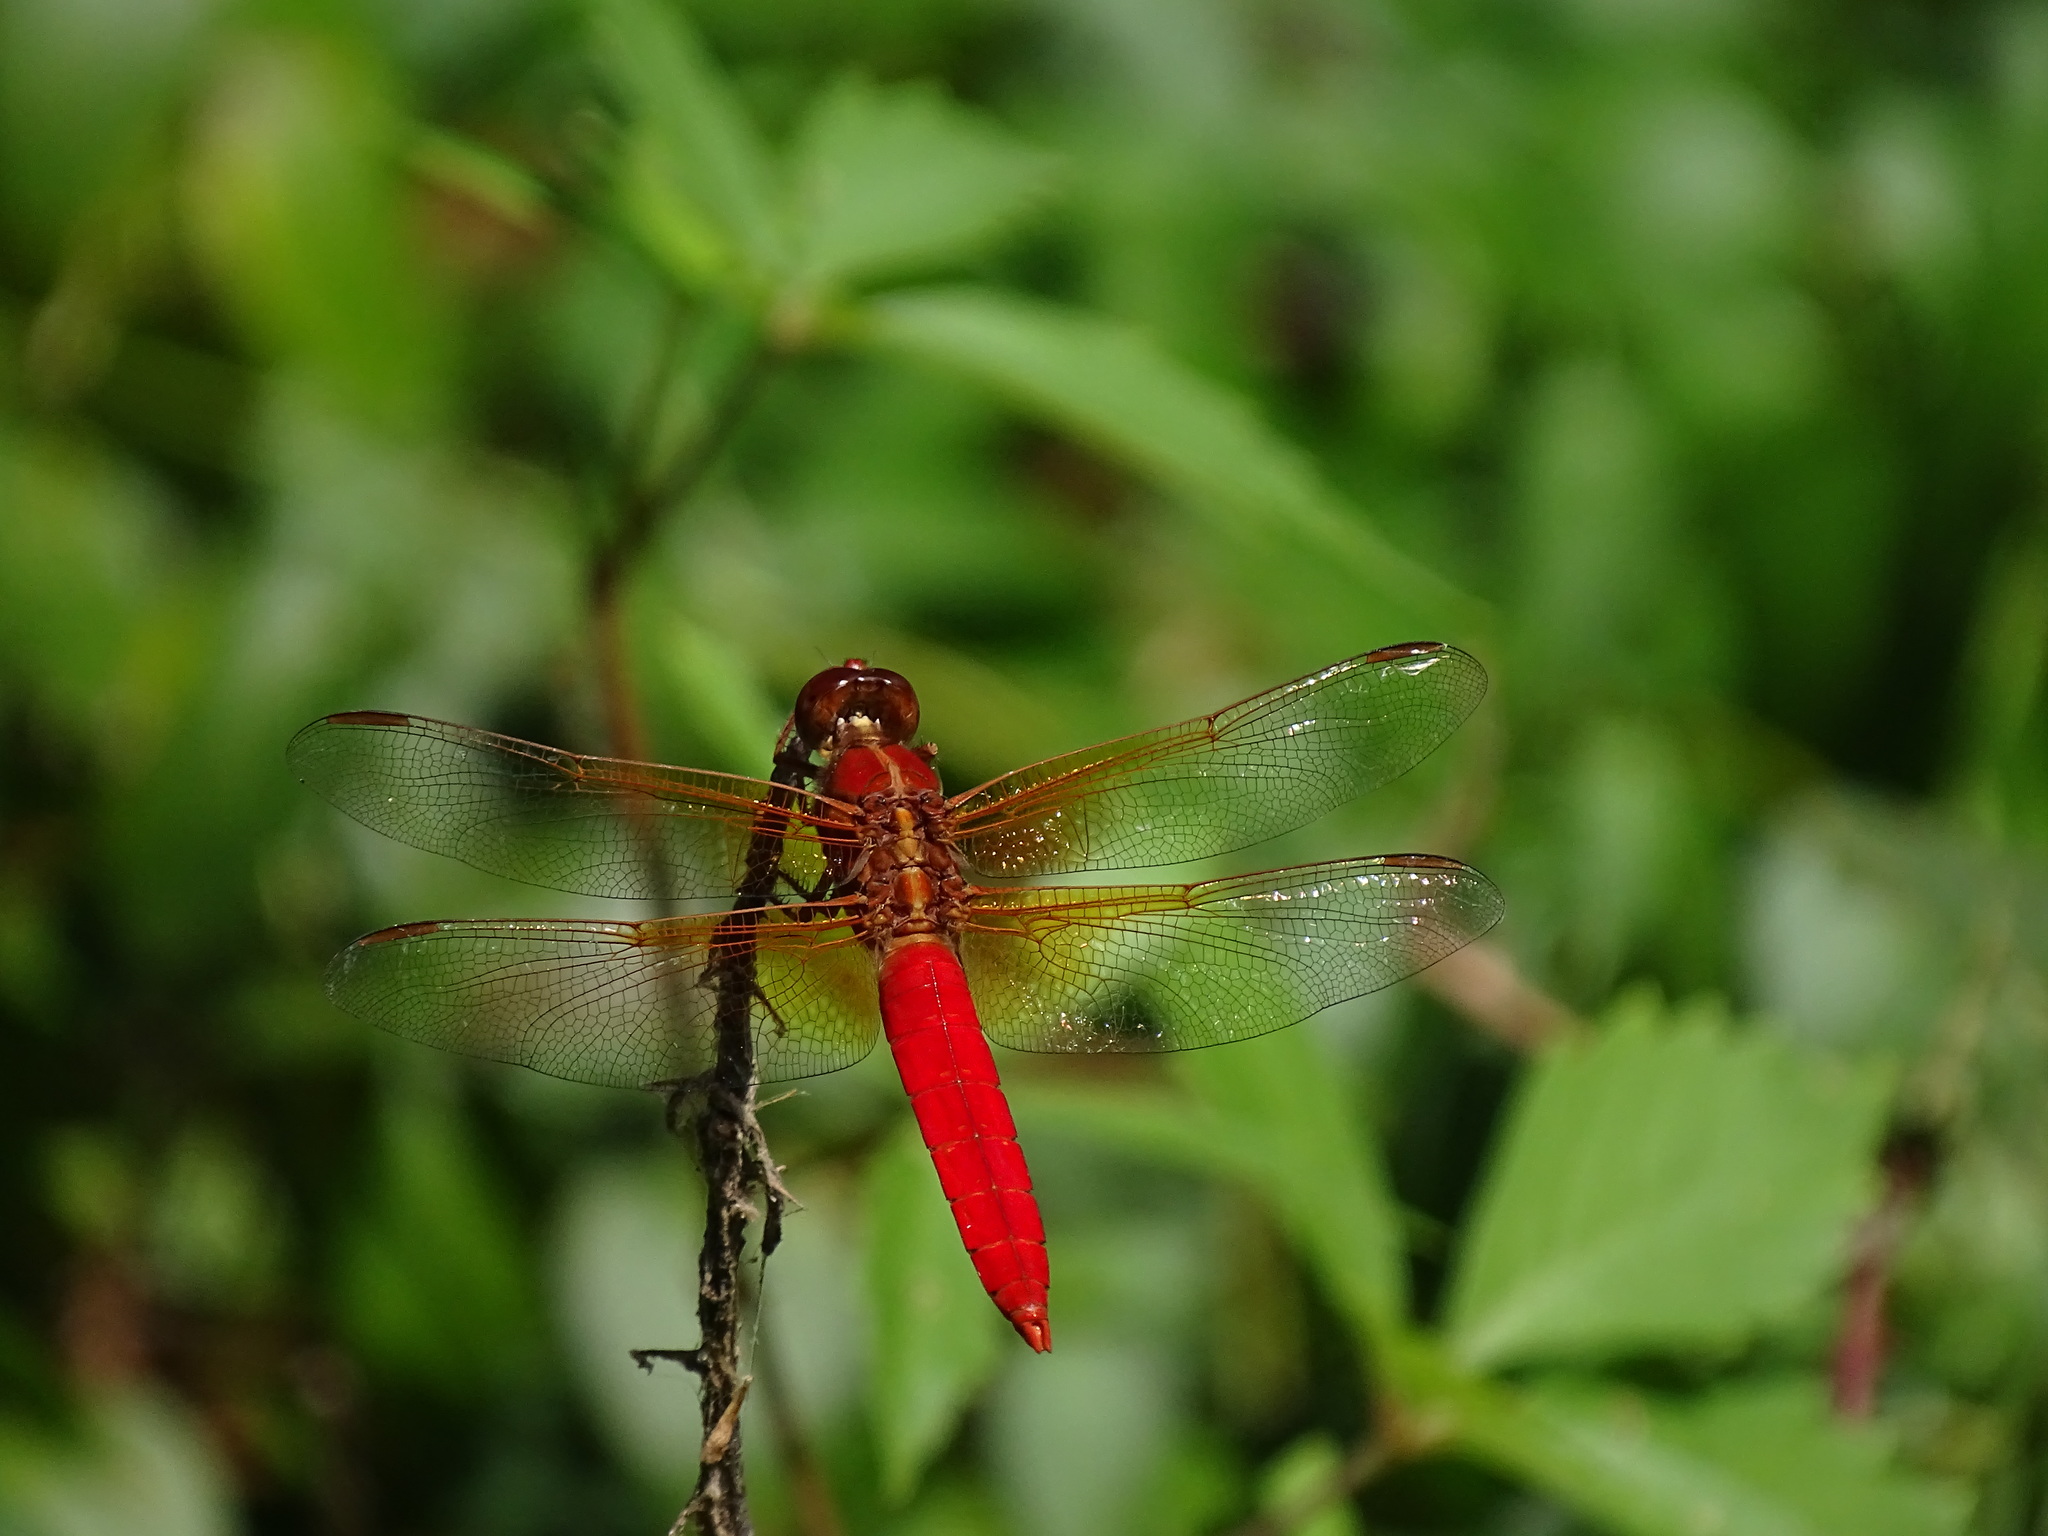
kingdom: Animalia
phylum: Arthropoda
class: Insecta
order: Odonata
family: Libellulidae
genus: Libellula
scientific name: Libellula croceipennis
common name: Neon skimmer
